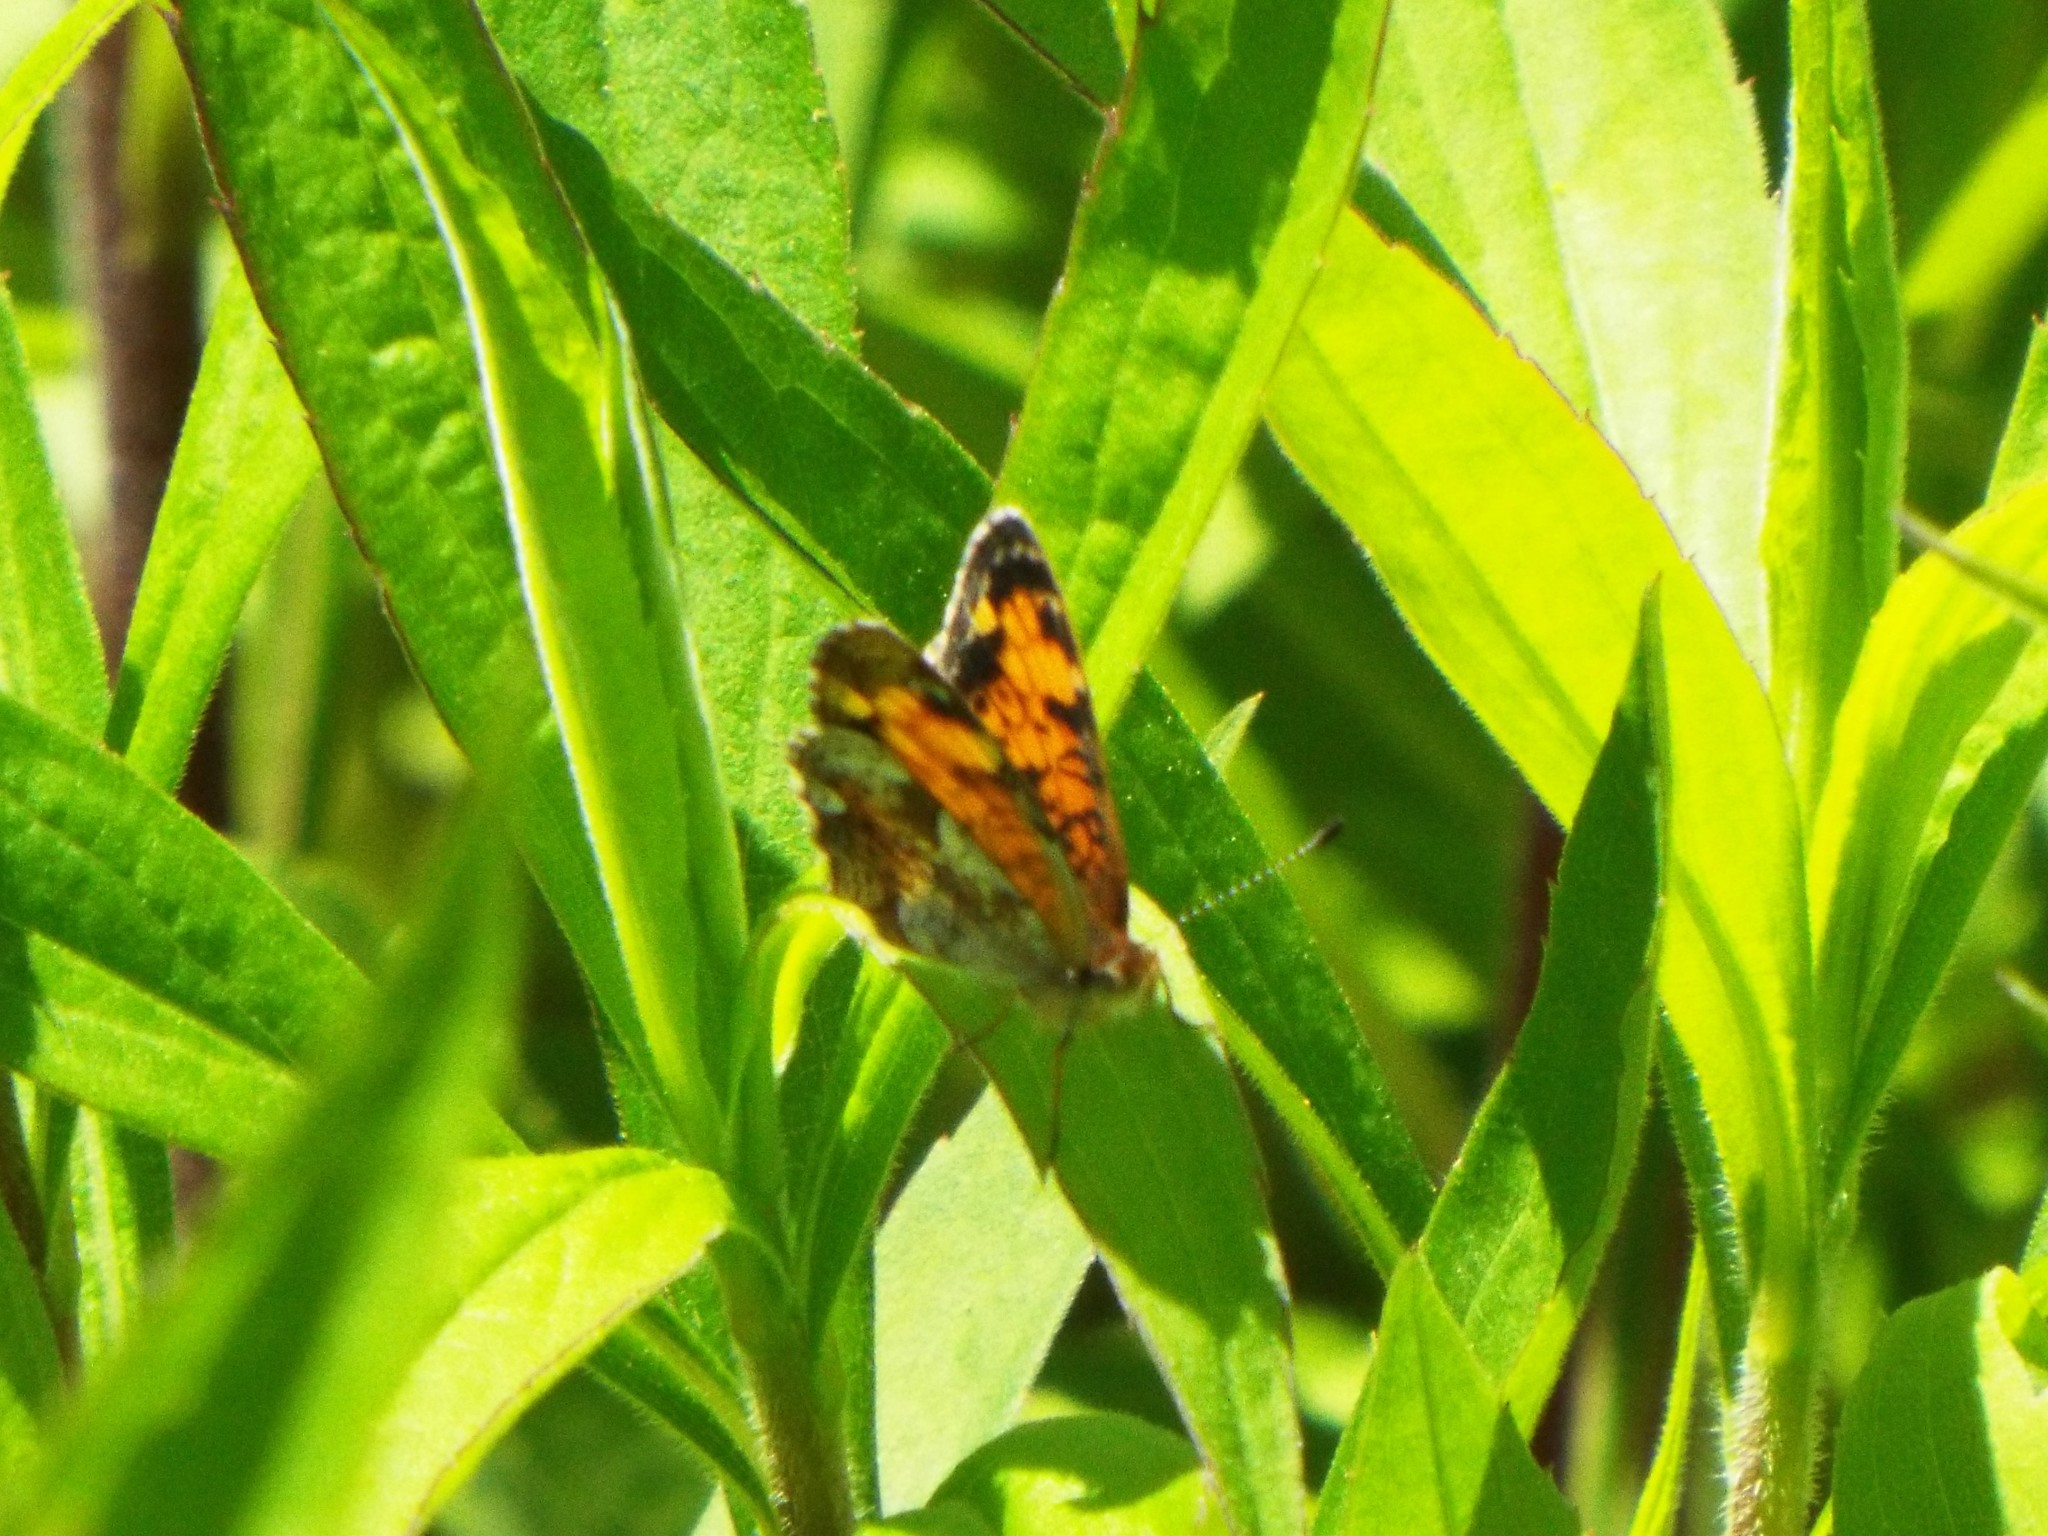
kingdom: Animalia
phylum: Arthropoda
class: Insecta
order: Lepidoptera
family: Nymphalidae
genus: Phyciodes
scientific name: Phyciodes tharos
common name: Pearl crescent
